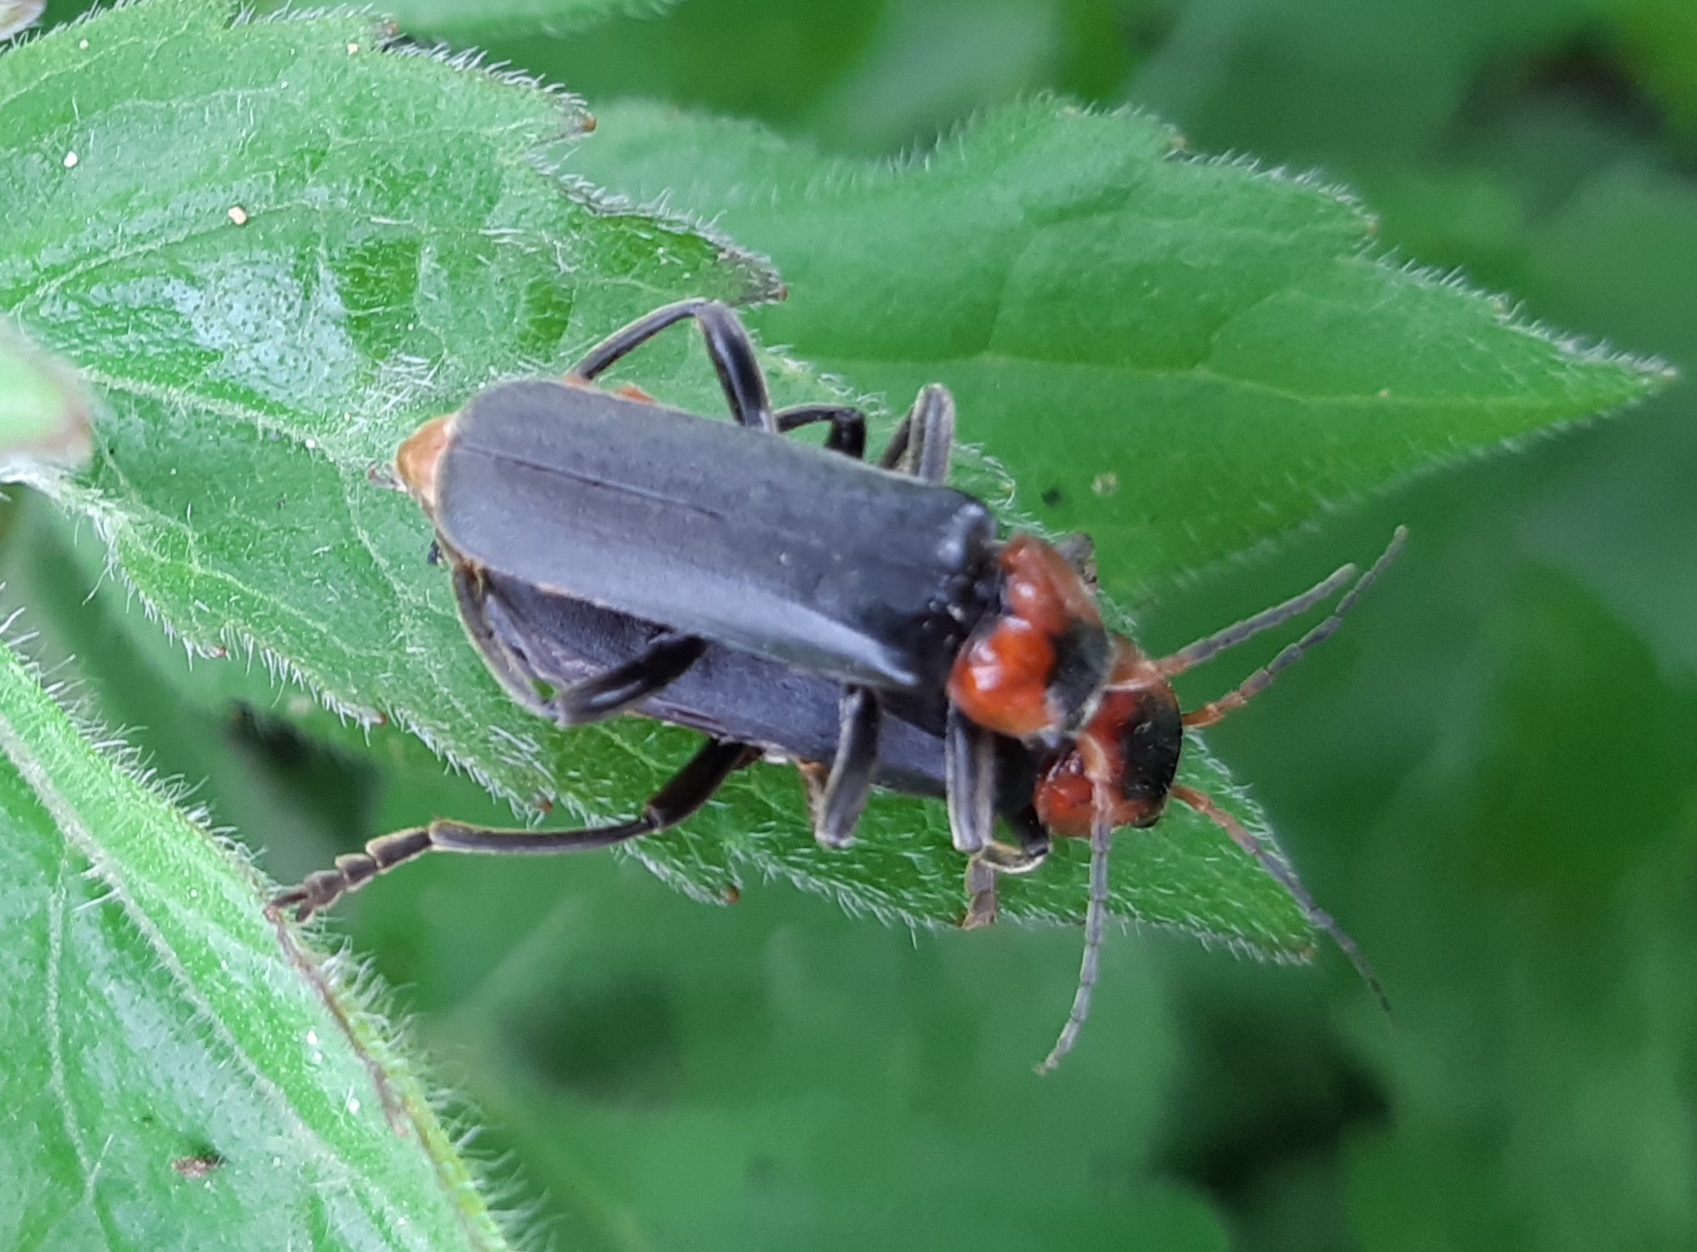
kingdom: Animalia
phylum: Arthropoda
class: Insecta
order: Coleoptera
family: Cantharidae
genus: Cantharis
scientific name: Cantharis fusca
